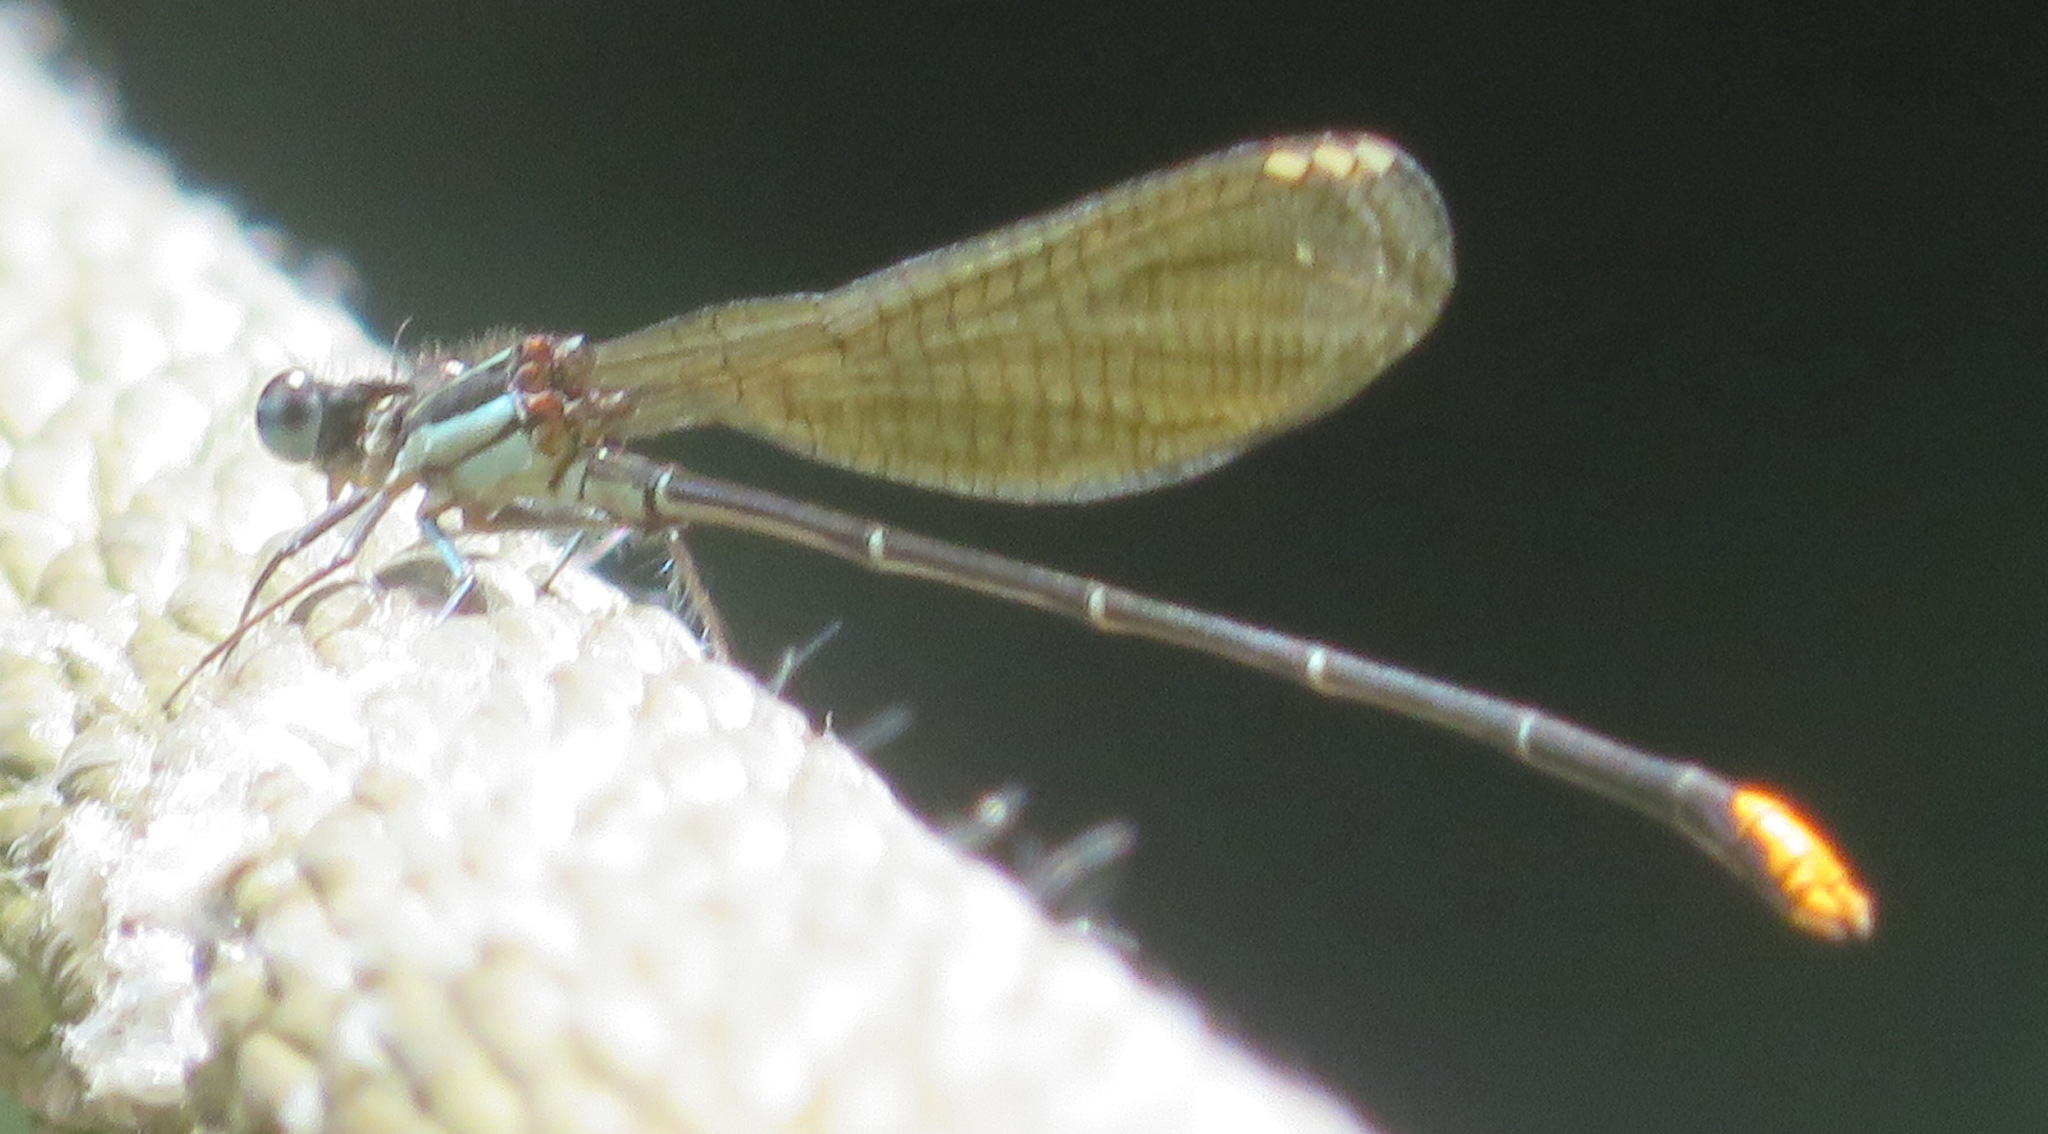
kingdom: Animalia
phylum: Arthropoda
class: Insecta
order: Odonata
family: Platycnemididae
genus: Allocnemis
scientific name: Allocnemis leucosticta
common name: Goldtail
